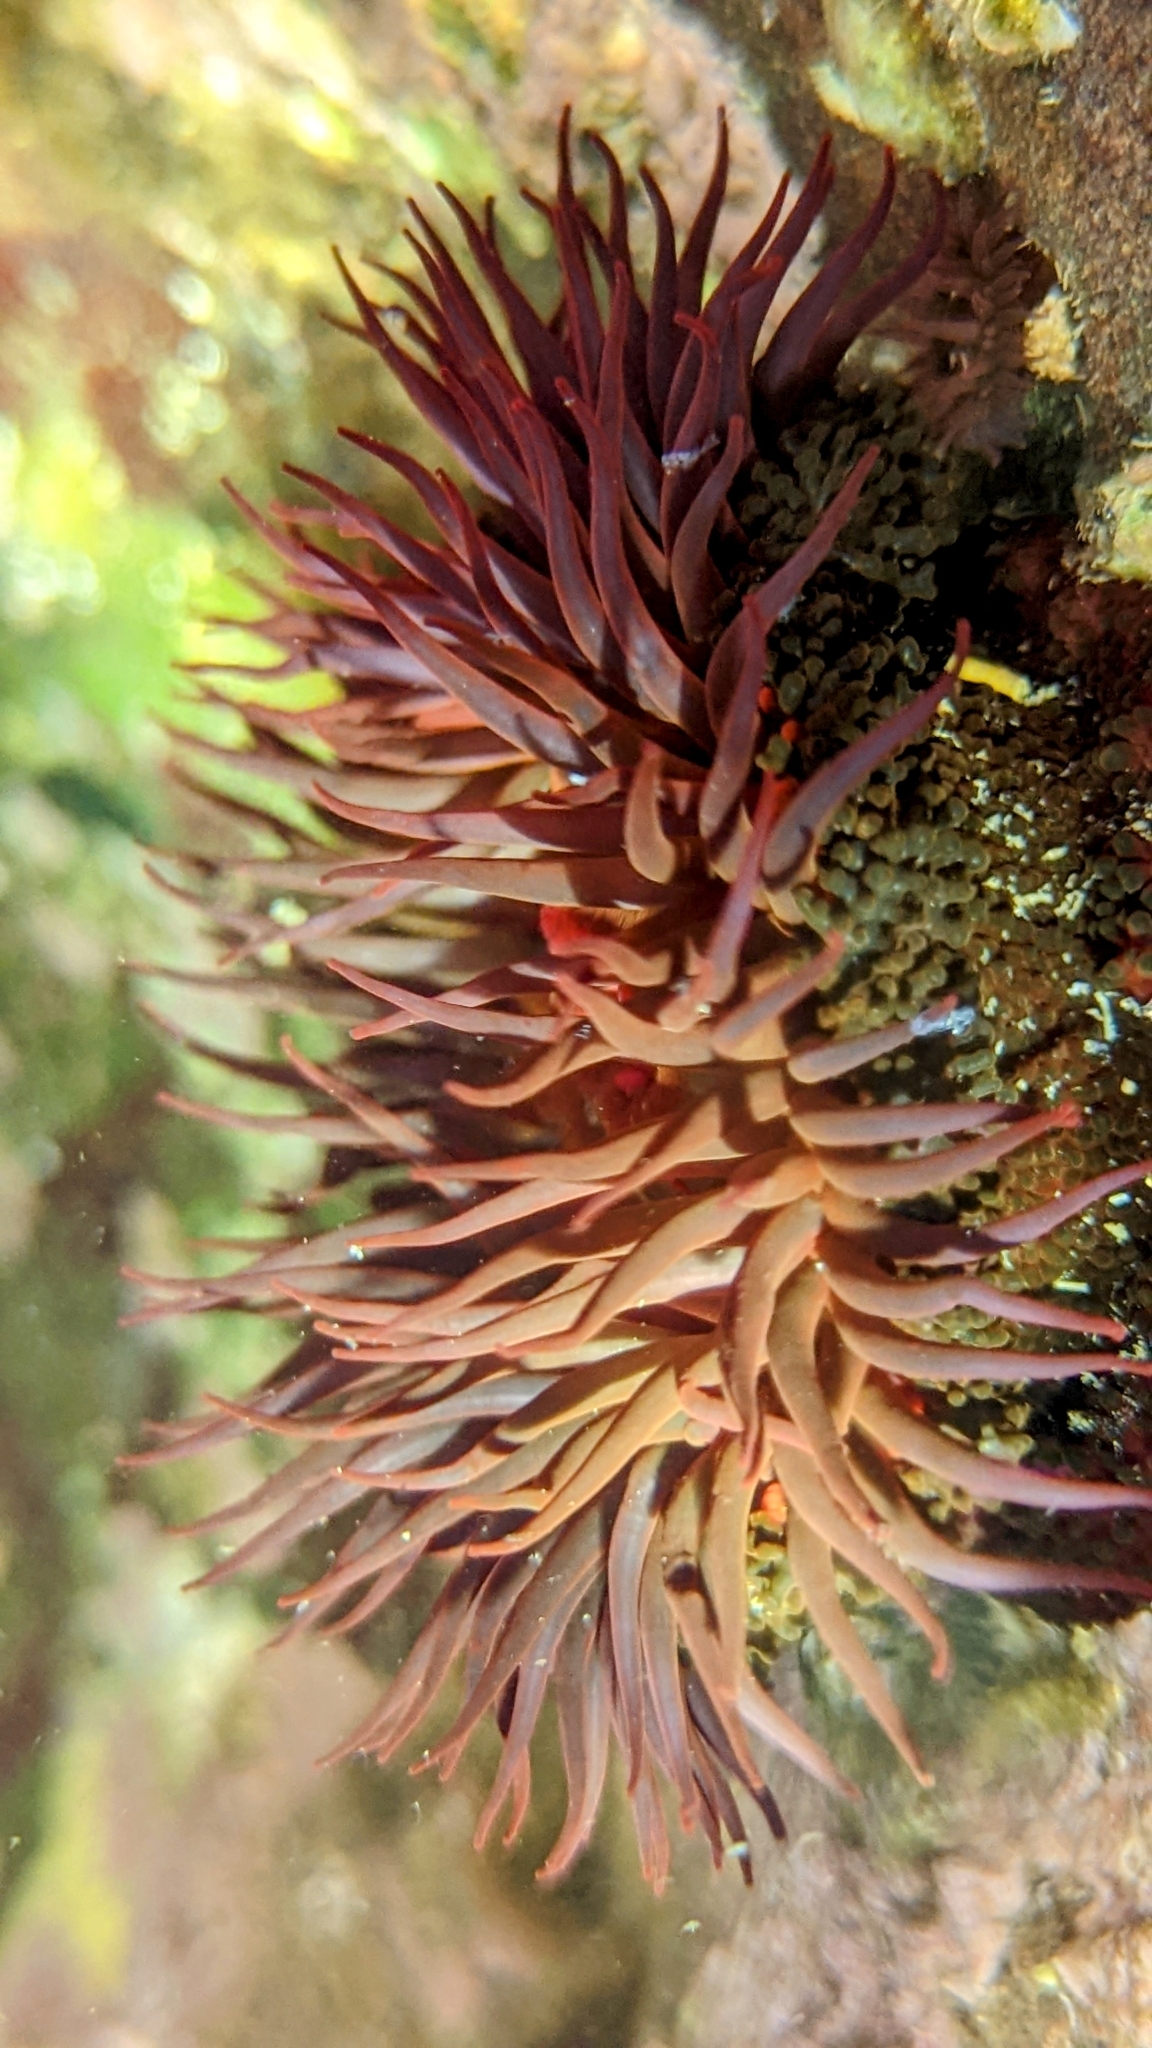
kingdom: Animalia
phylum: Cnidaria
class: Anthozoa
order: Actiniaria
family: Actiniidae
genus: Bunodosoma
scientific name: Bunodosoma goanense
